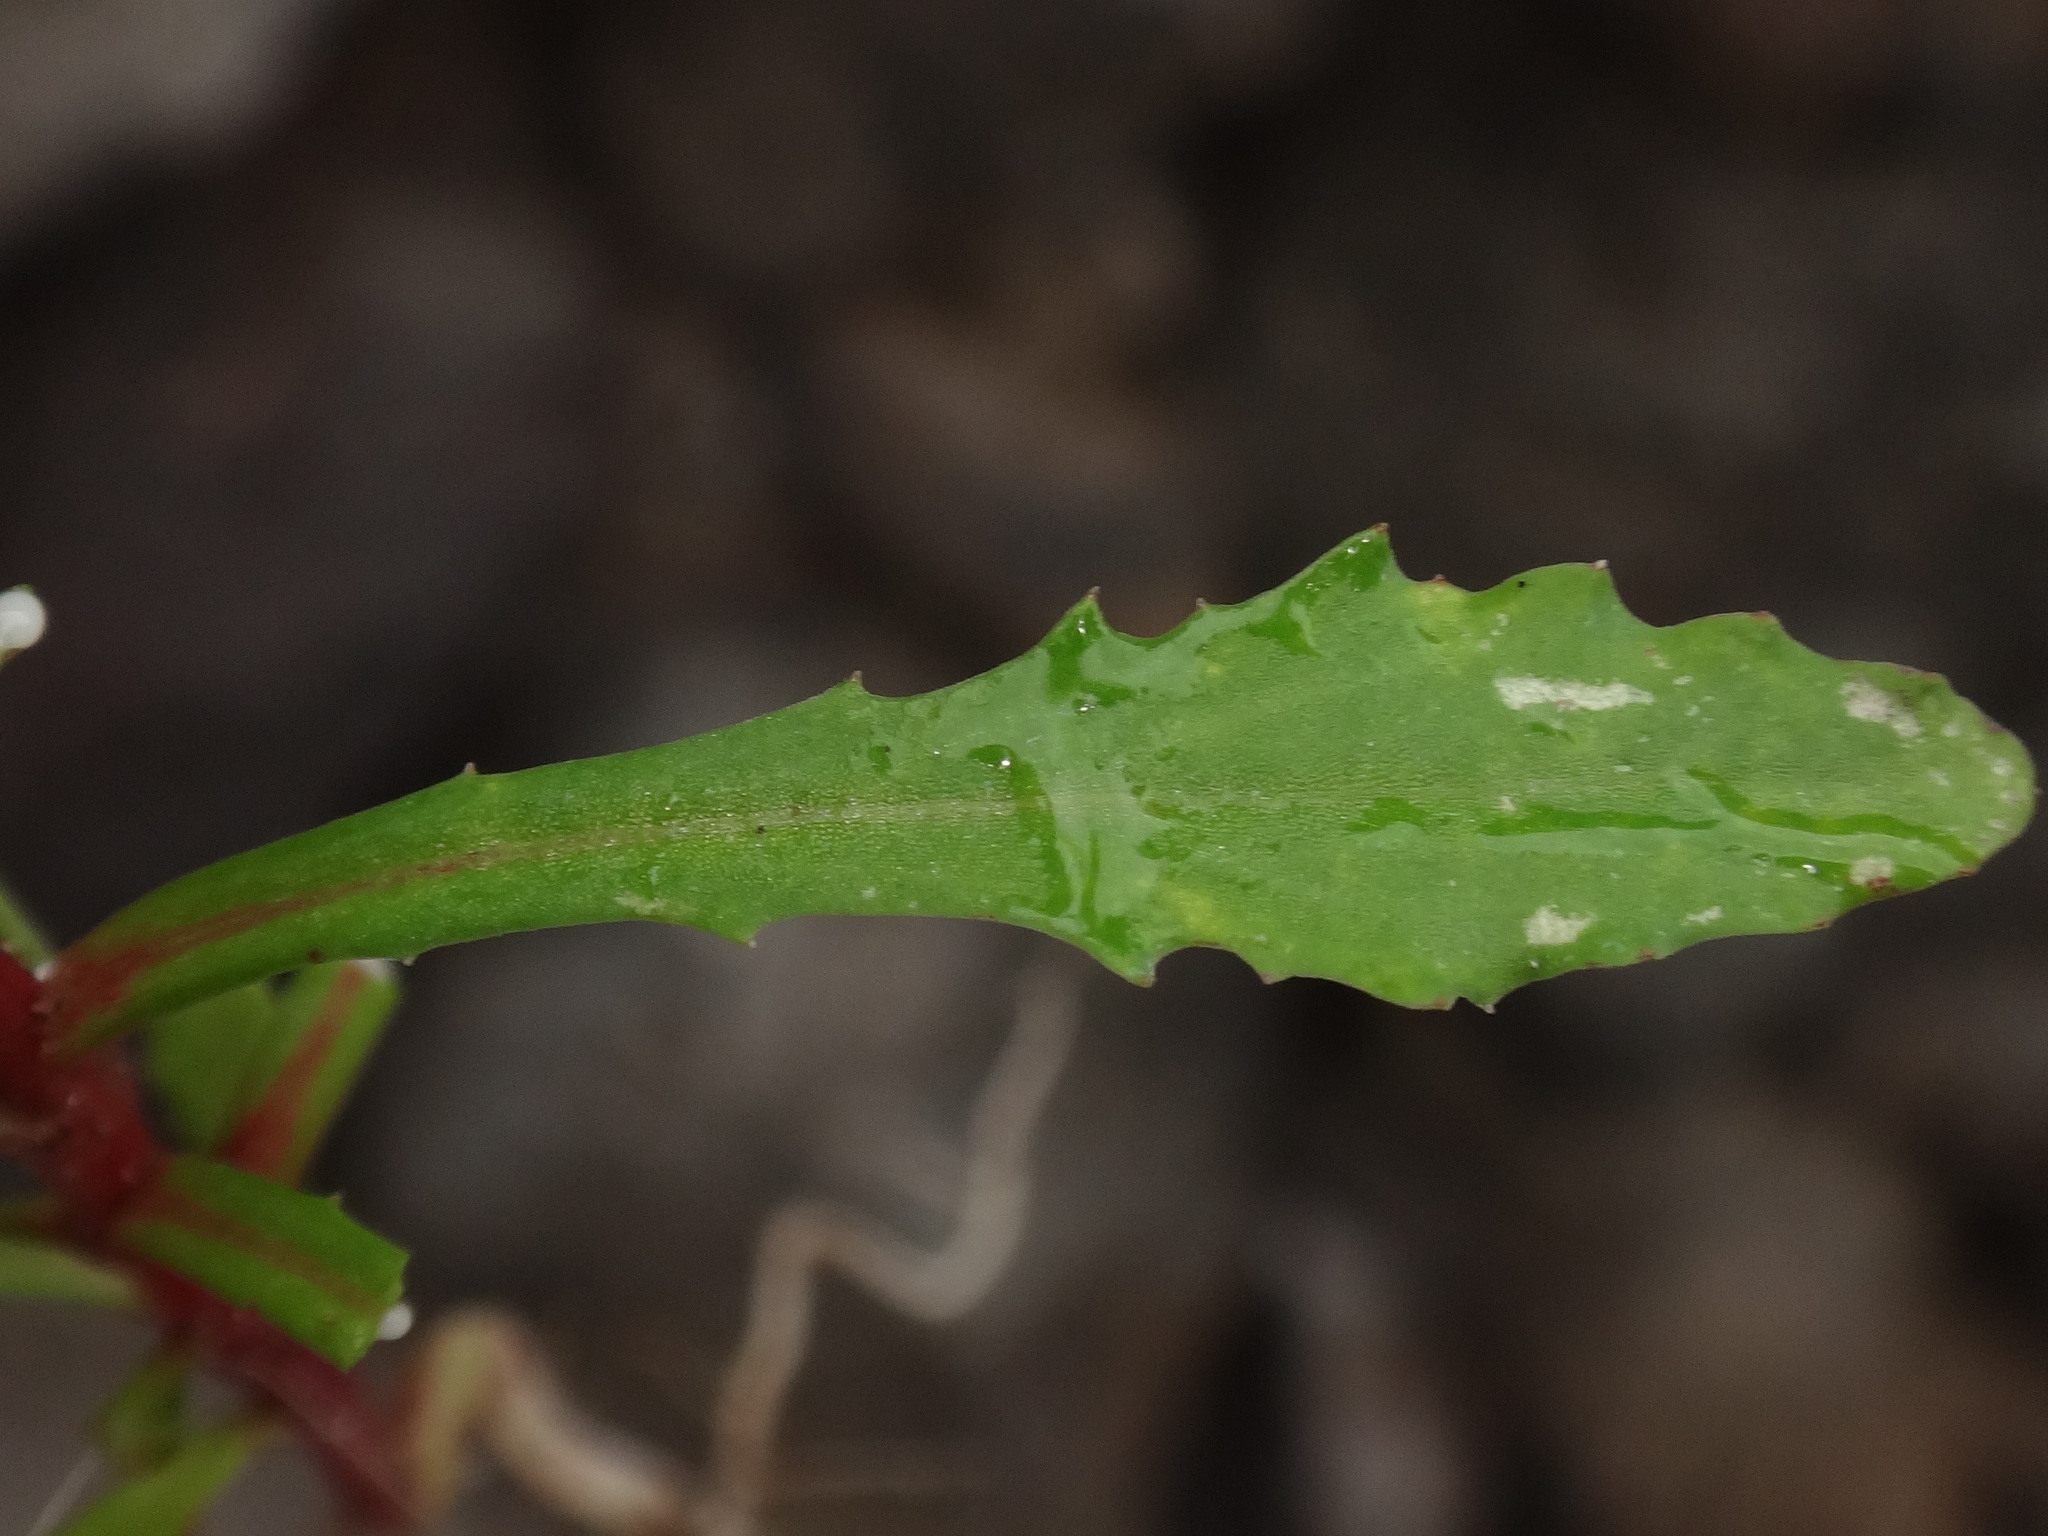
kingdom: Plantae
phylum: Tracheophyta
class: Magnoliopsida
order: Asterales
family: Campanulaceae
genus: Wahlenbergia
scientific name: Wahlenbergia lobelioides
